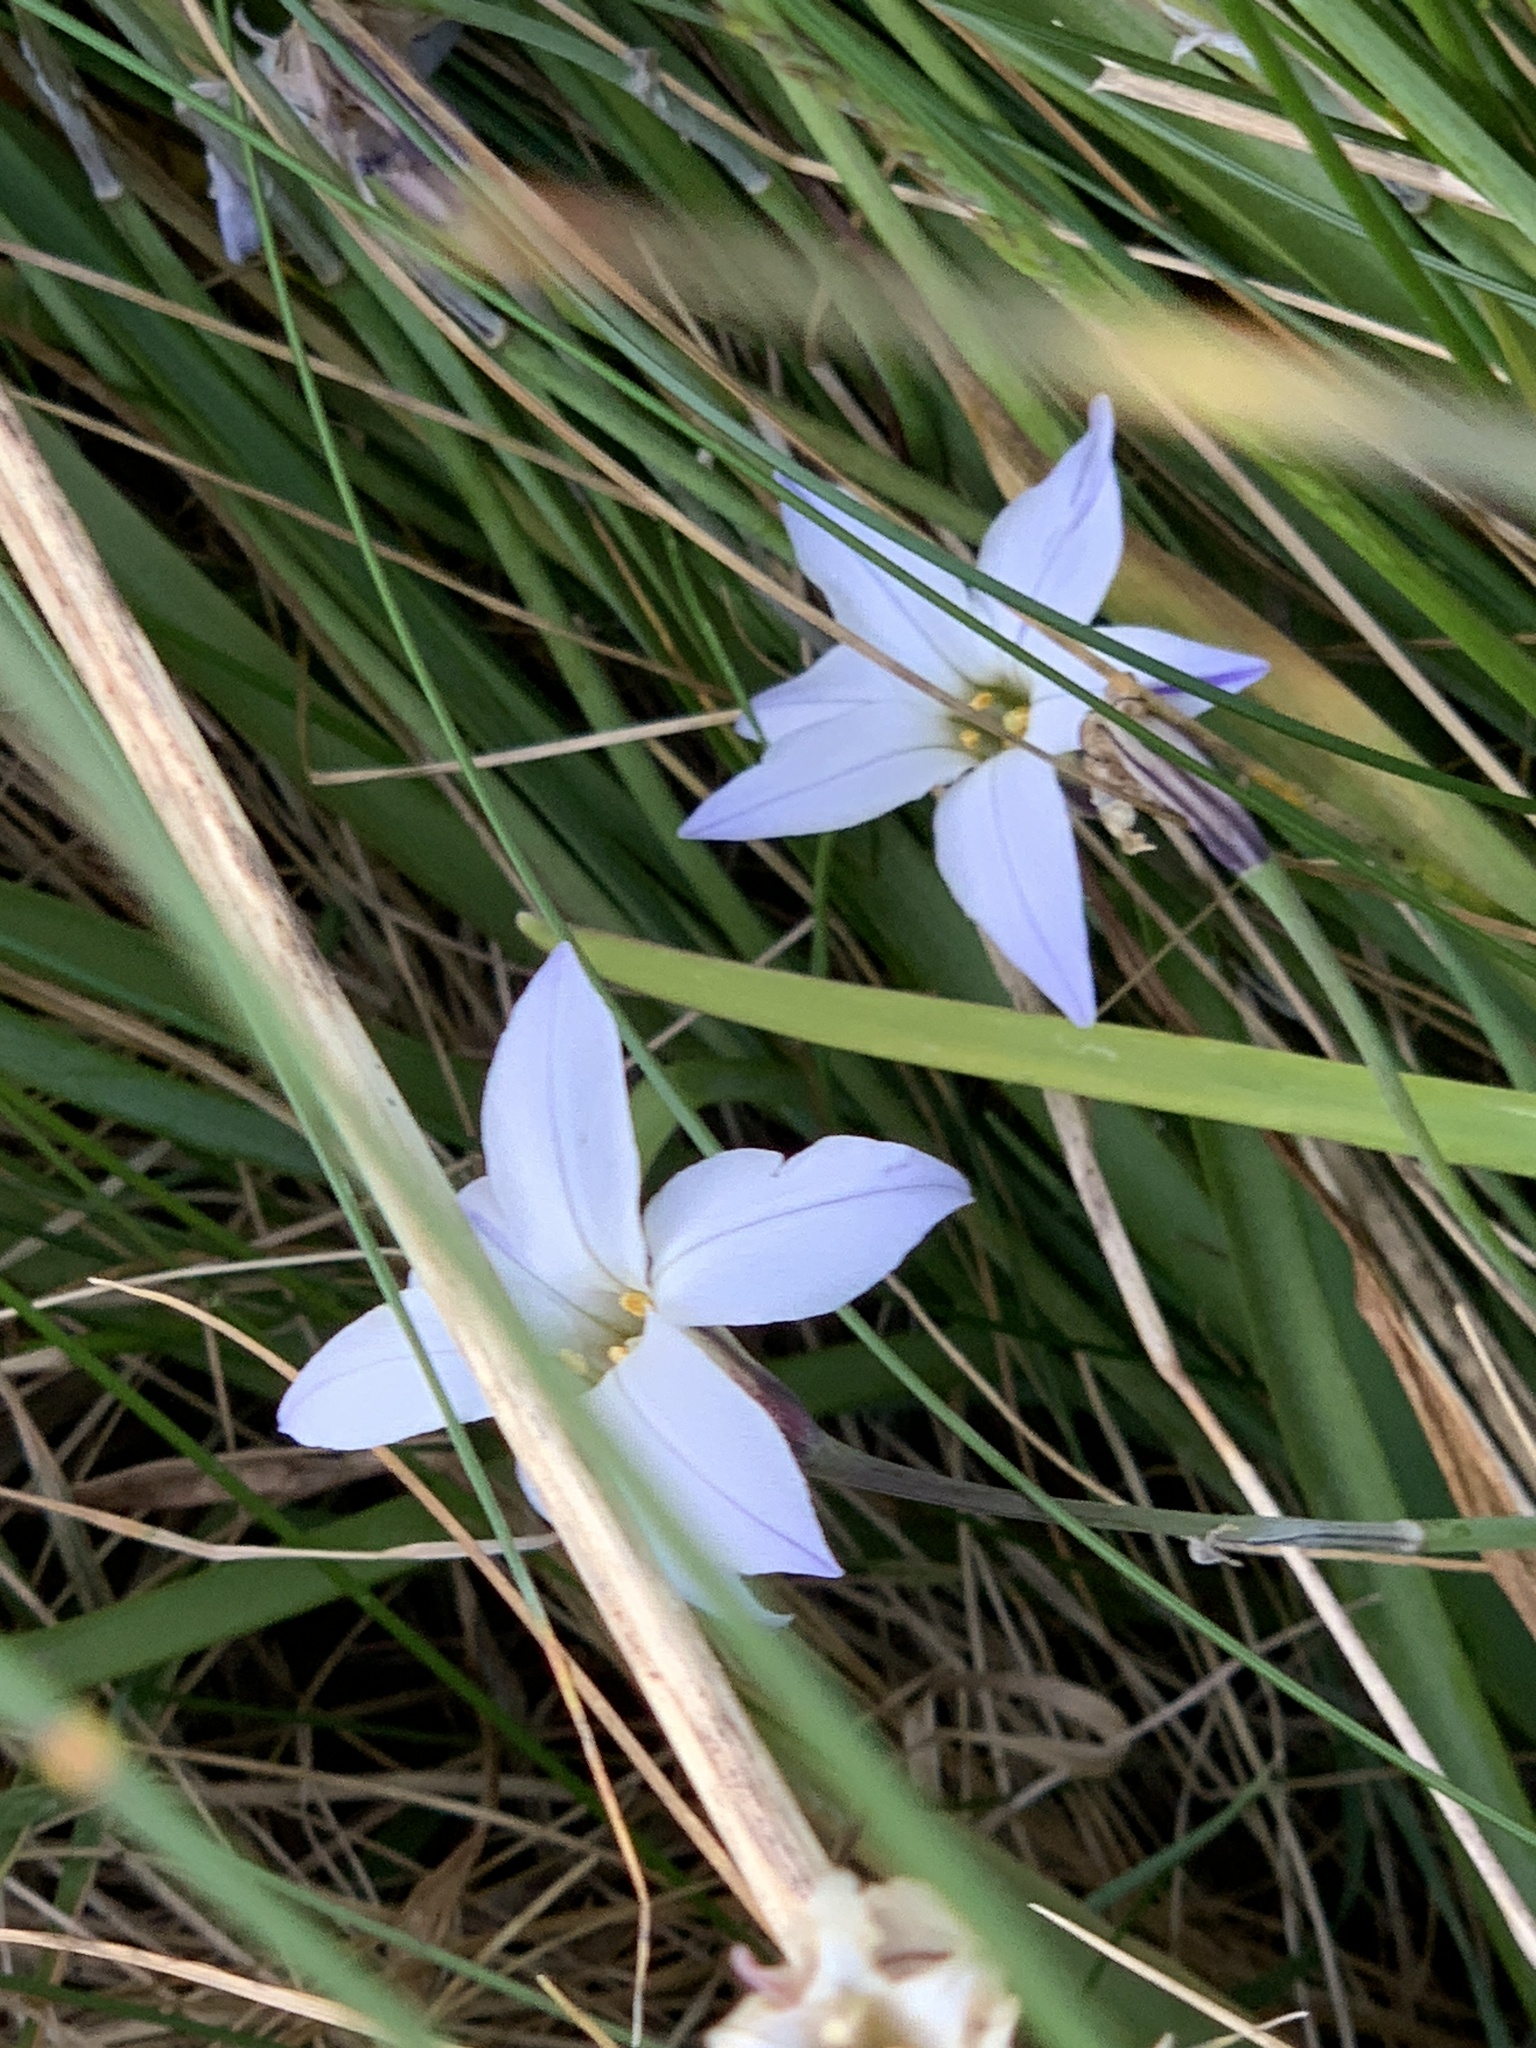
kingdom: Plantae
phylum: Tracheophyta
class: Liliopsida
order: Asparagales
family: Amaryllidaceae
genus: Ipheion
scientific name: Ipheion uniflorum
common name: Spring starflower
